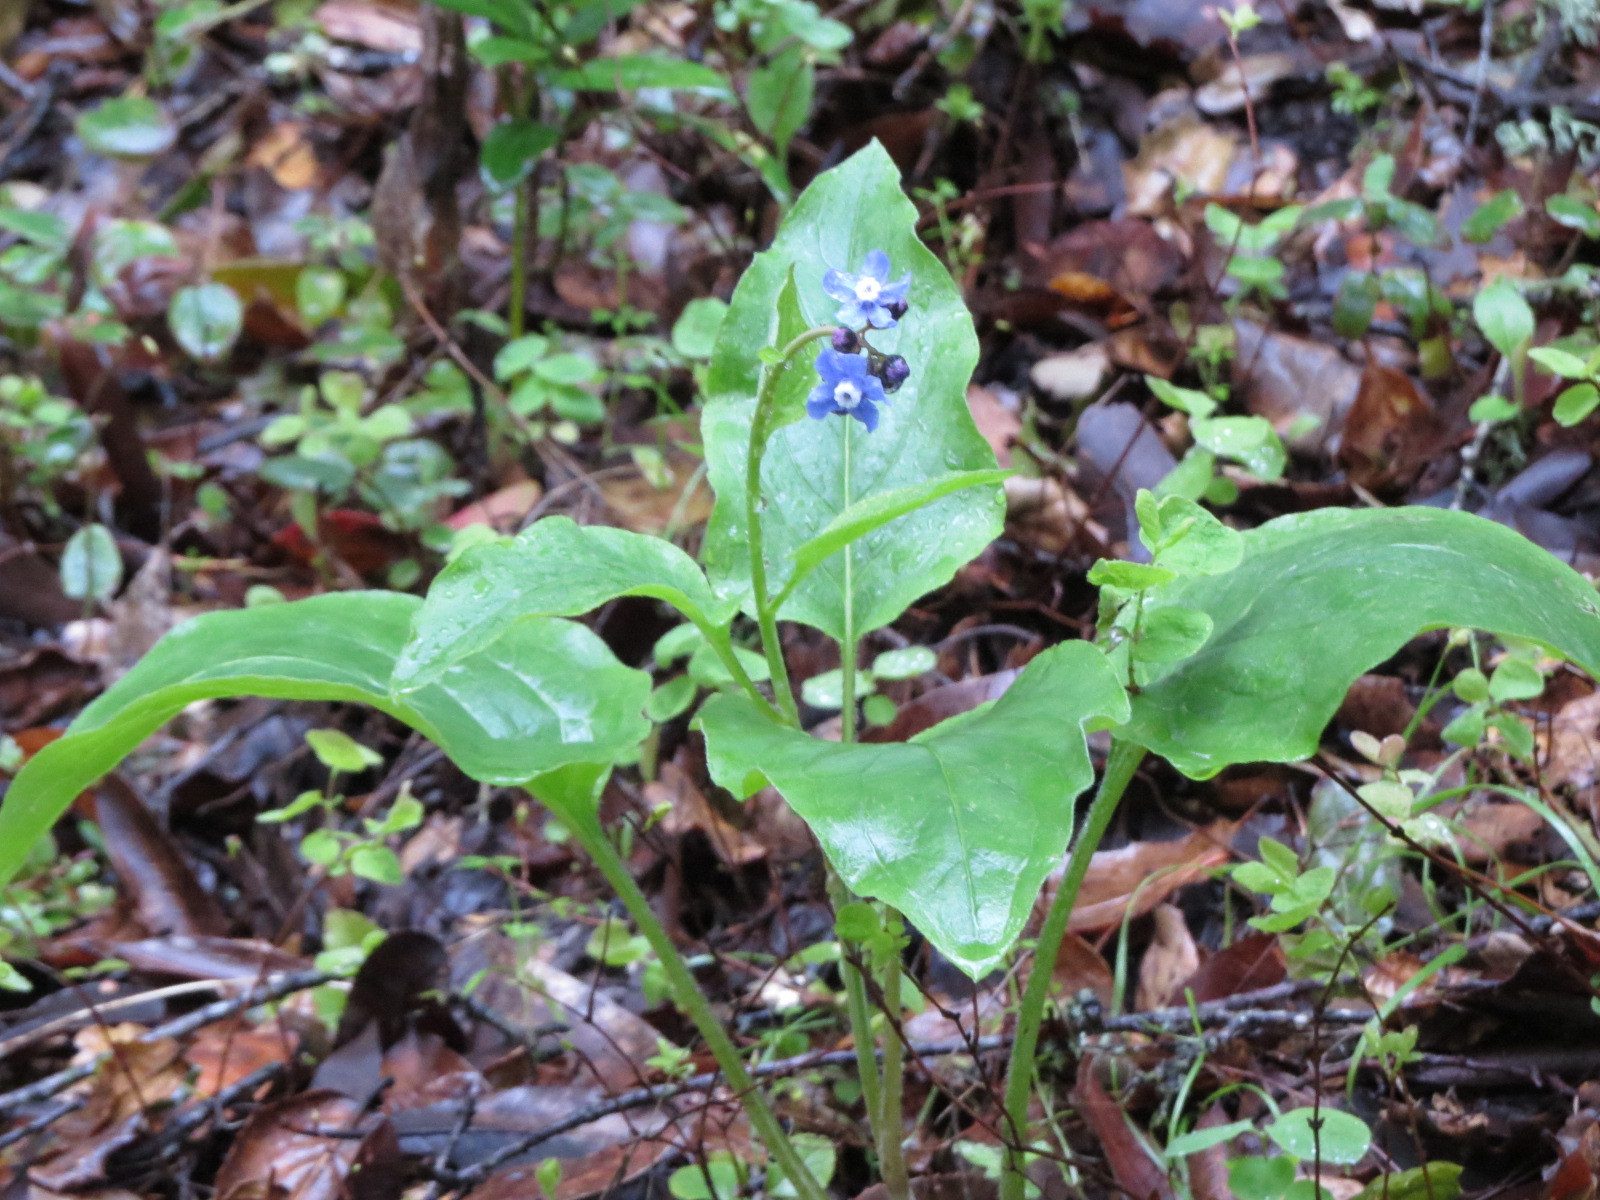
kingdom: Plantae
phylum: Tracheophyta
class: Magnoliopsida
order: Boraginales
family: Boraginaceae
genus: Adelinia
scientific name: Adelinia grande
